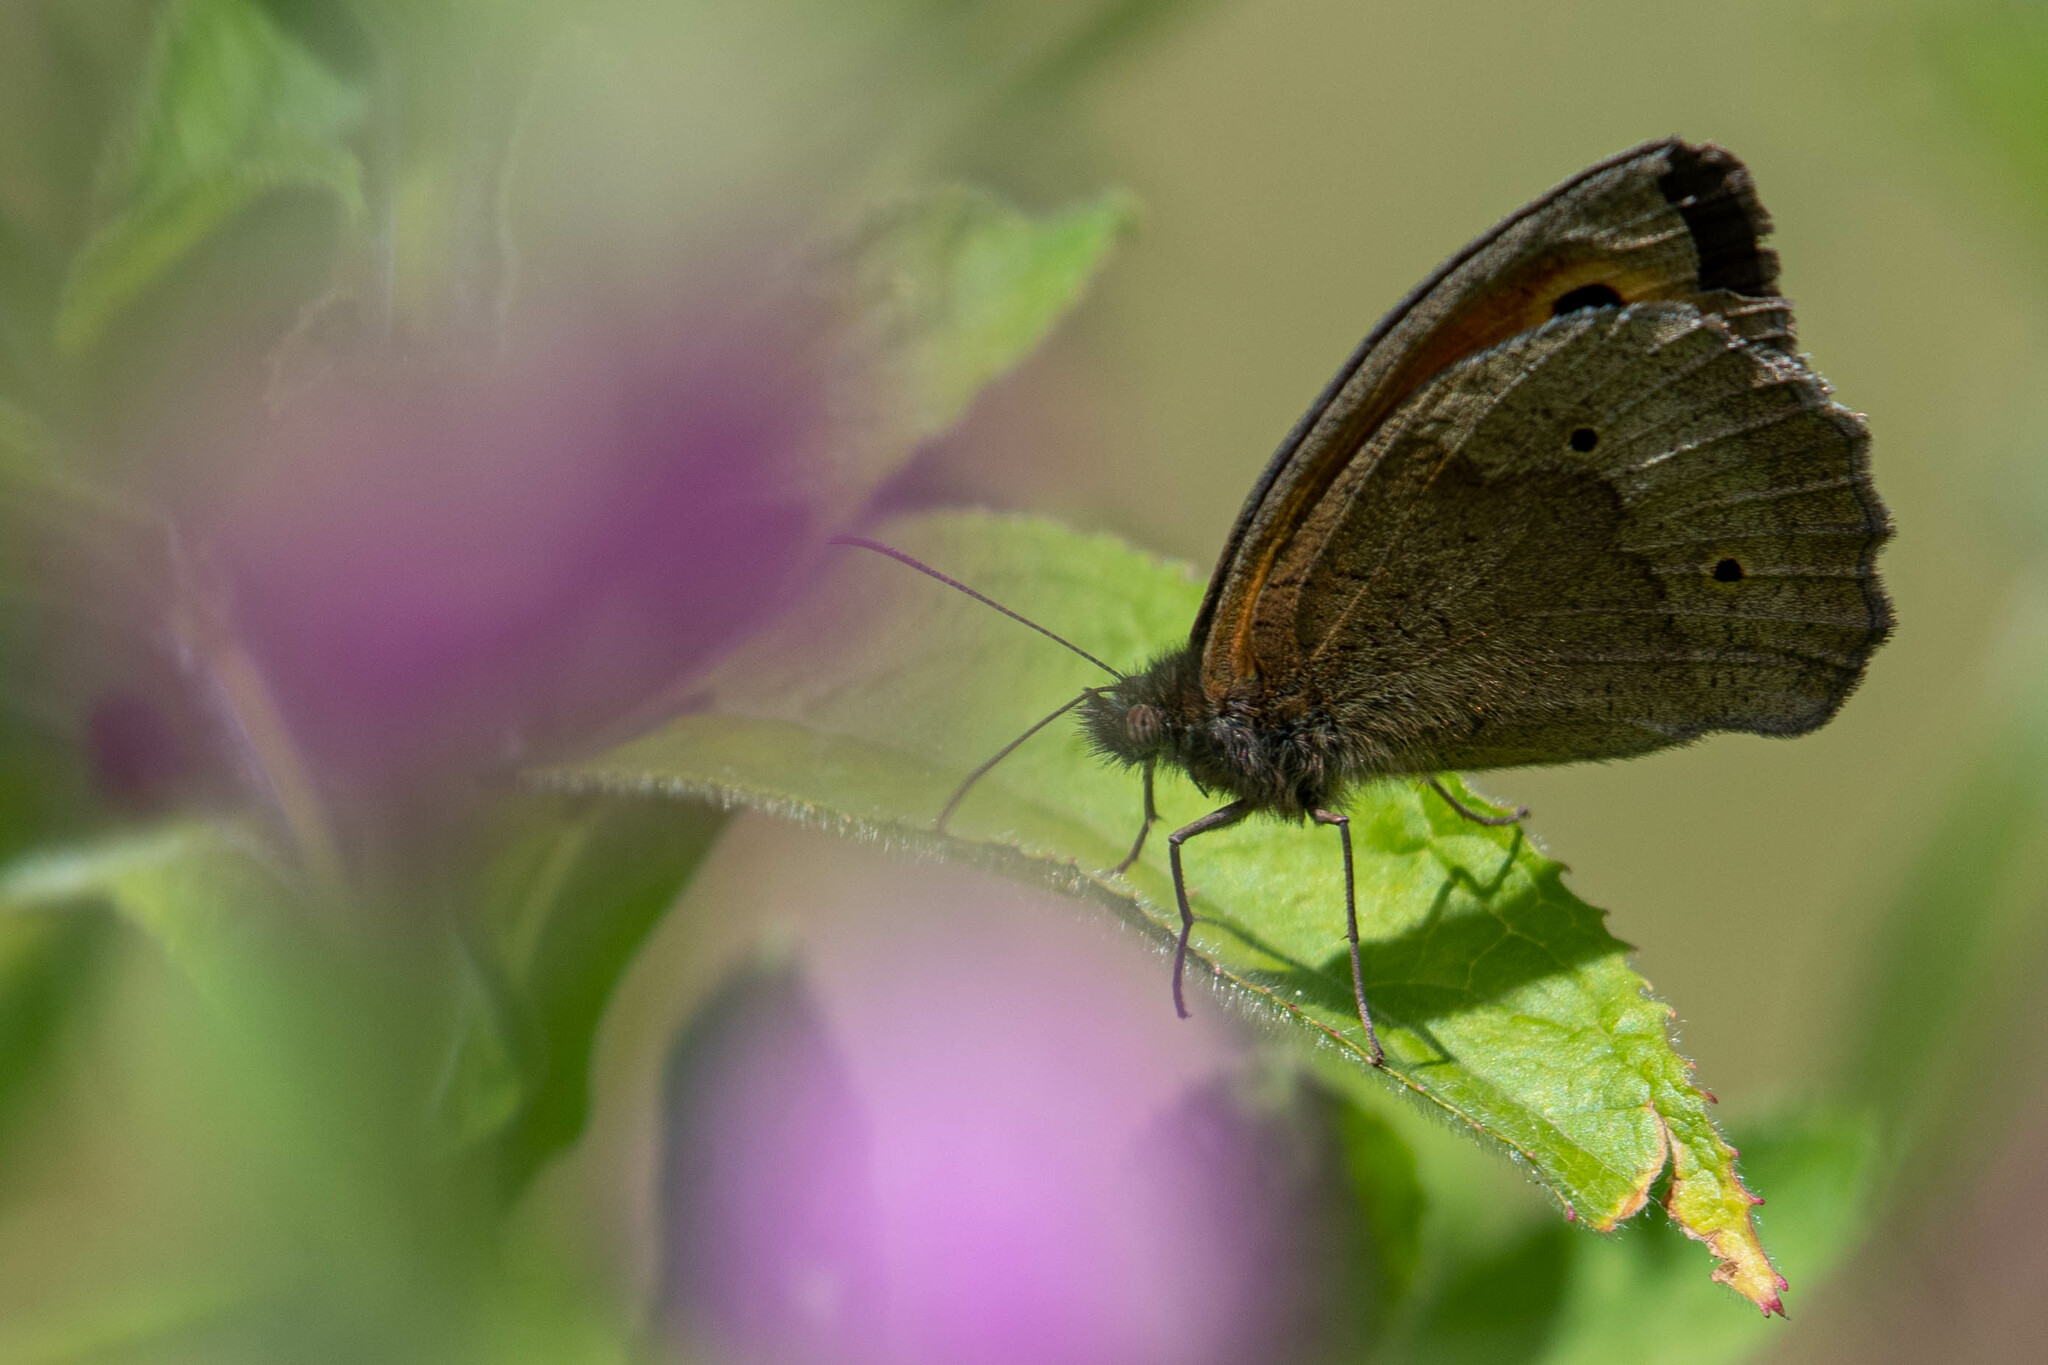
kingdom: Animalia
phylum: Arthropoda
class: Insecta
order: Lepidoptera
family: Nymphalidae
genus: Maniola
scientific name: Maniola jurtina
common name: Meadow brown
